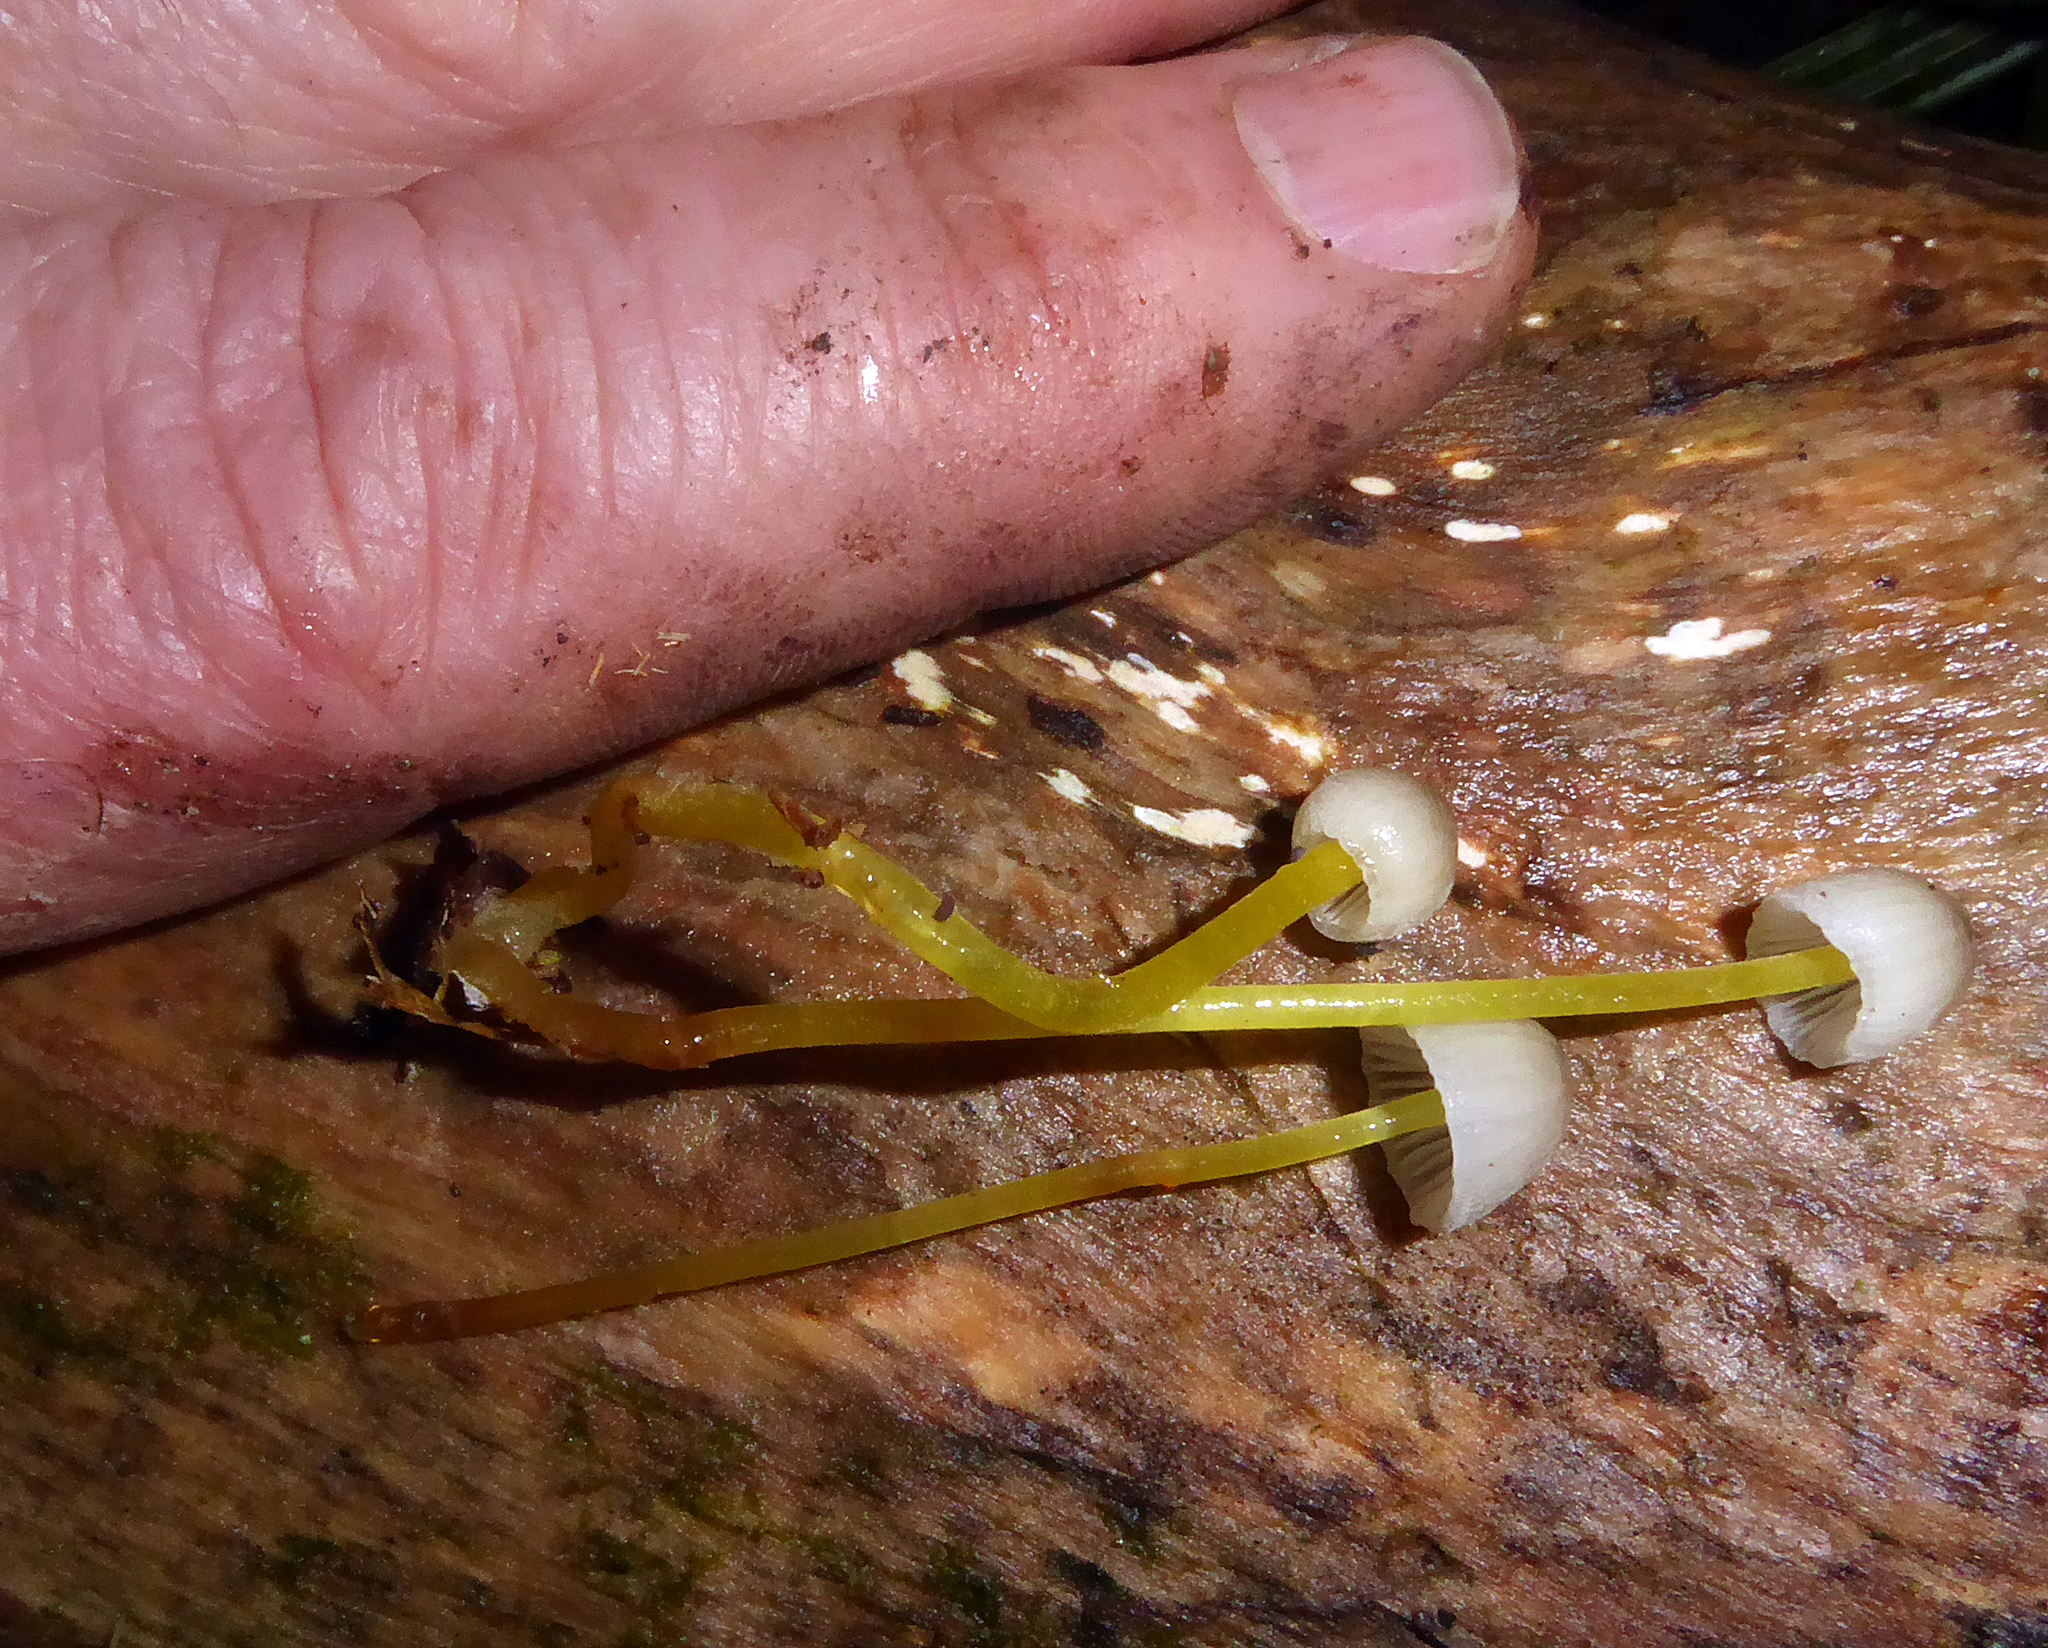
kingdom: Fungi
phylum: Basidiomycota
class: Agaricomycetes
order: Agaricales
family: Mycenaceae
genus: Mycena
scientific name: Mycena subviscosa
